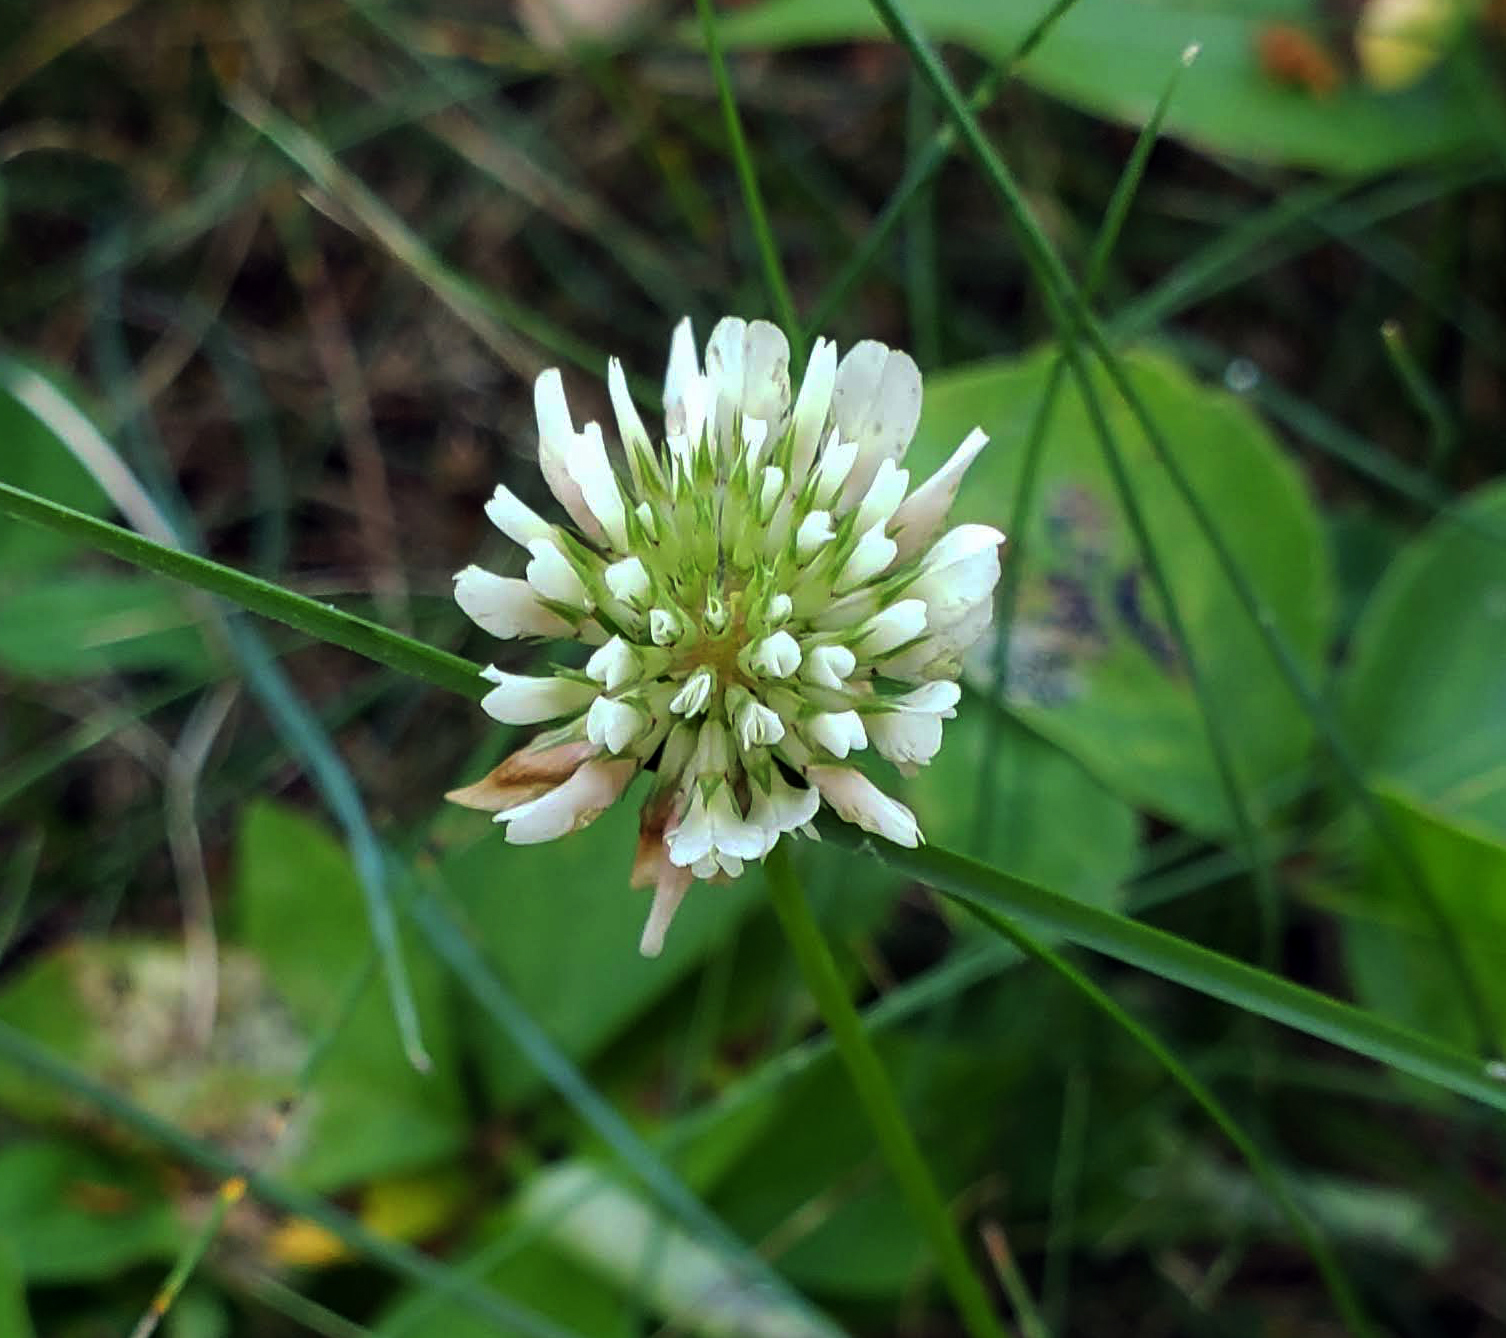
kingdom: Plantae
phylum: Tracheophyta
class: Magnoliopsida
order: Fabales
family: Fabaceae
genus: Trifolium
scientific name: Trifolium repens
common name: White clover
